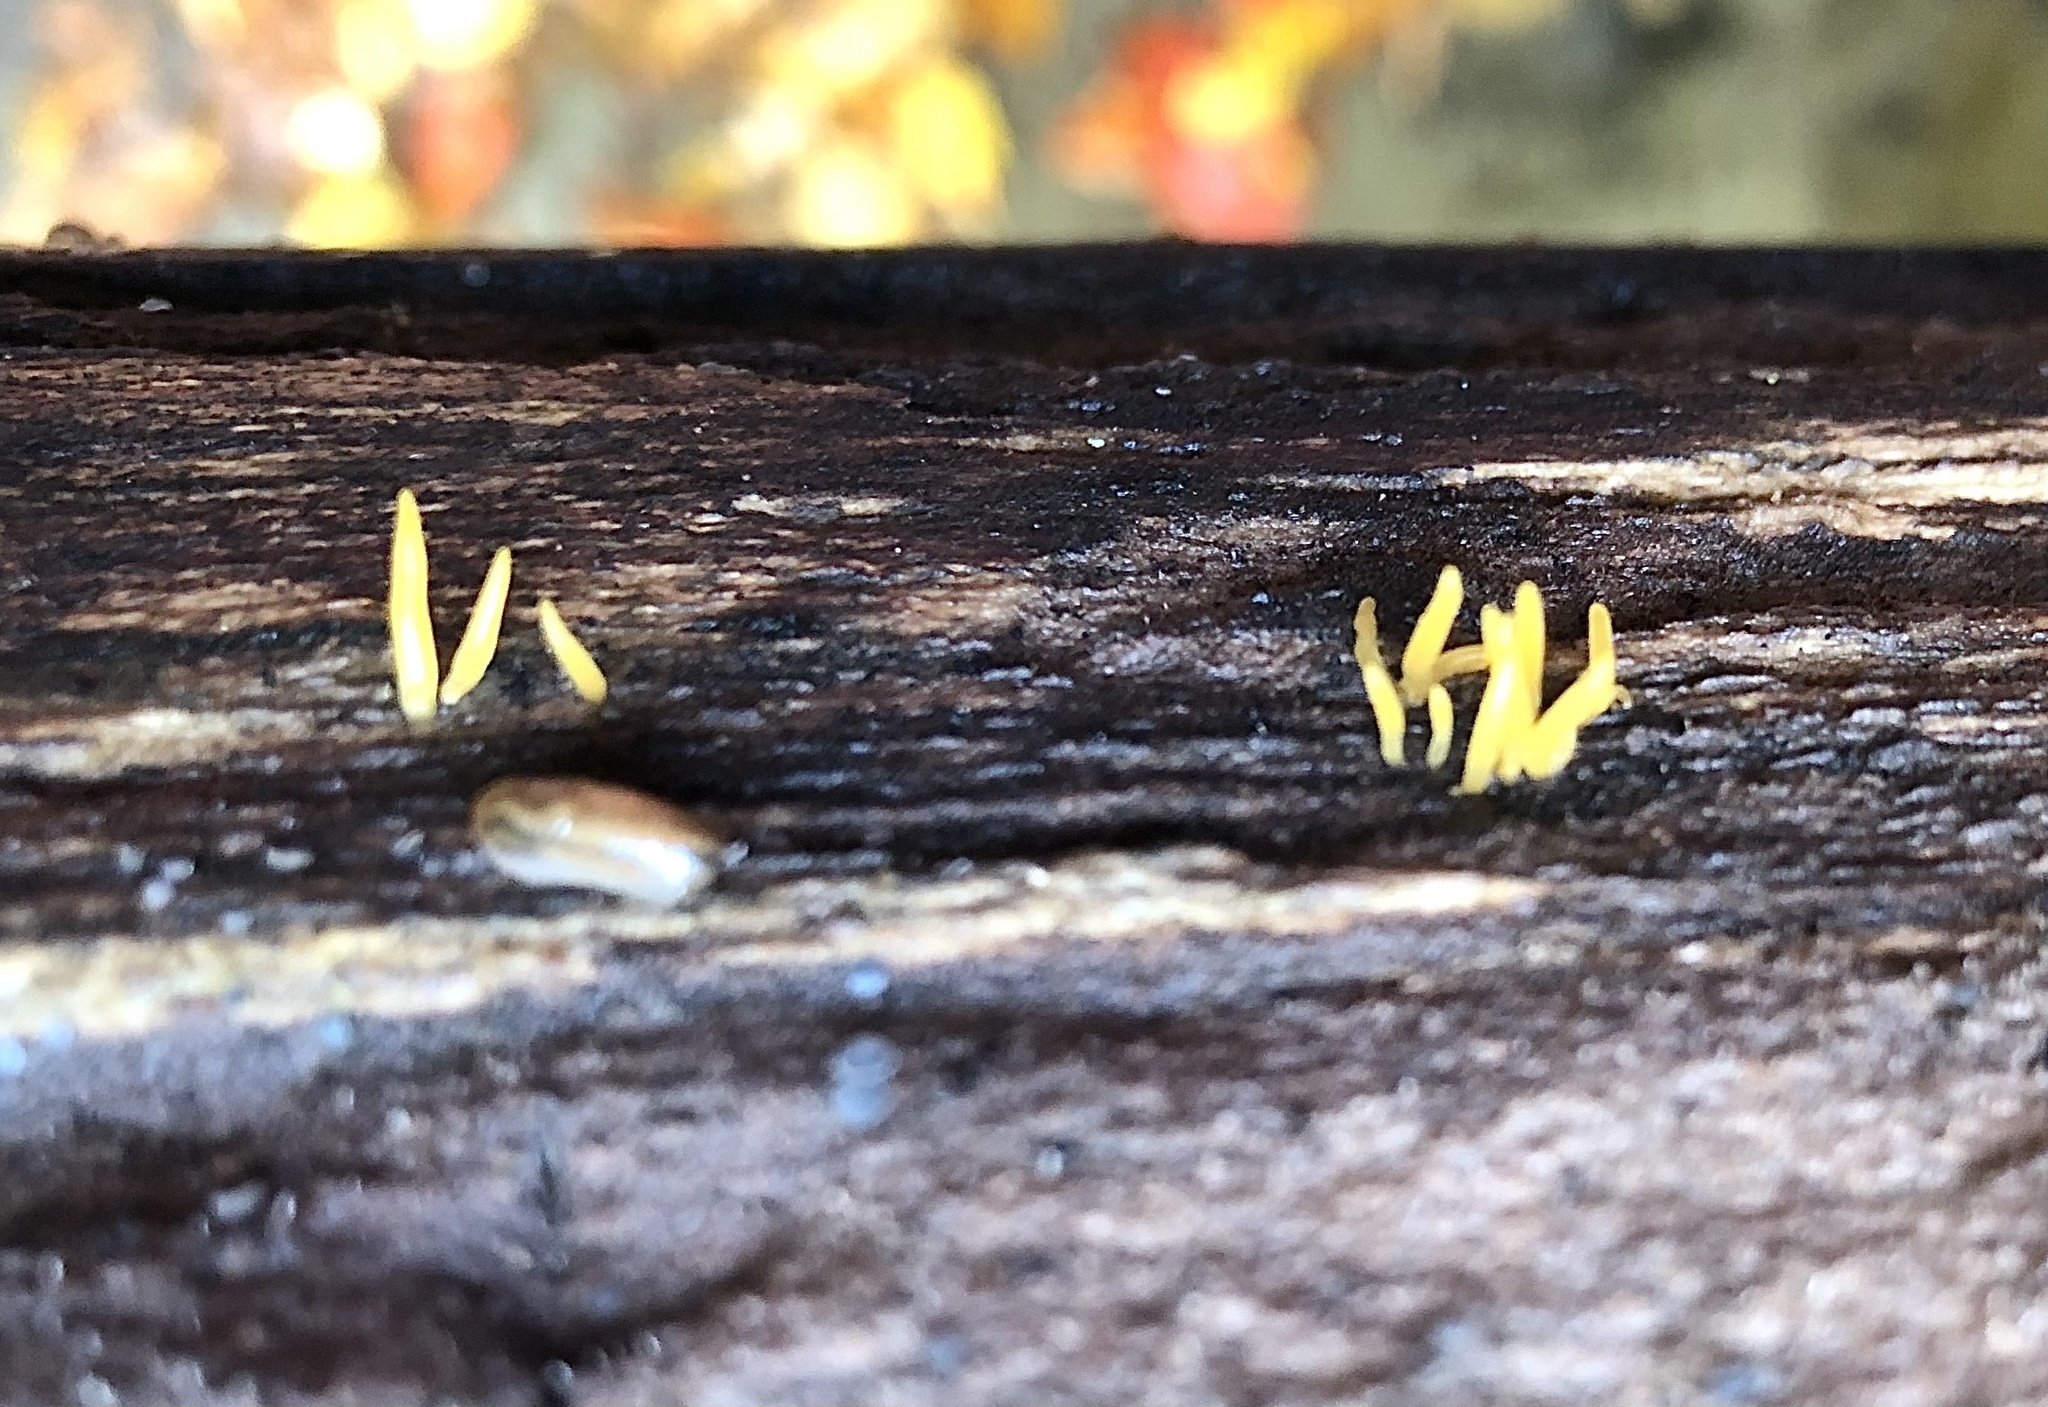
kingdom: Fungi
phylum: Basidiomycota
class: Dacrymycetes
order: Dacrymycetales
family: Dacrymycetaceae
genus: Calocera
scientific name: Calocera cornea
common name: Small stagshorn
